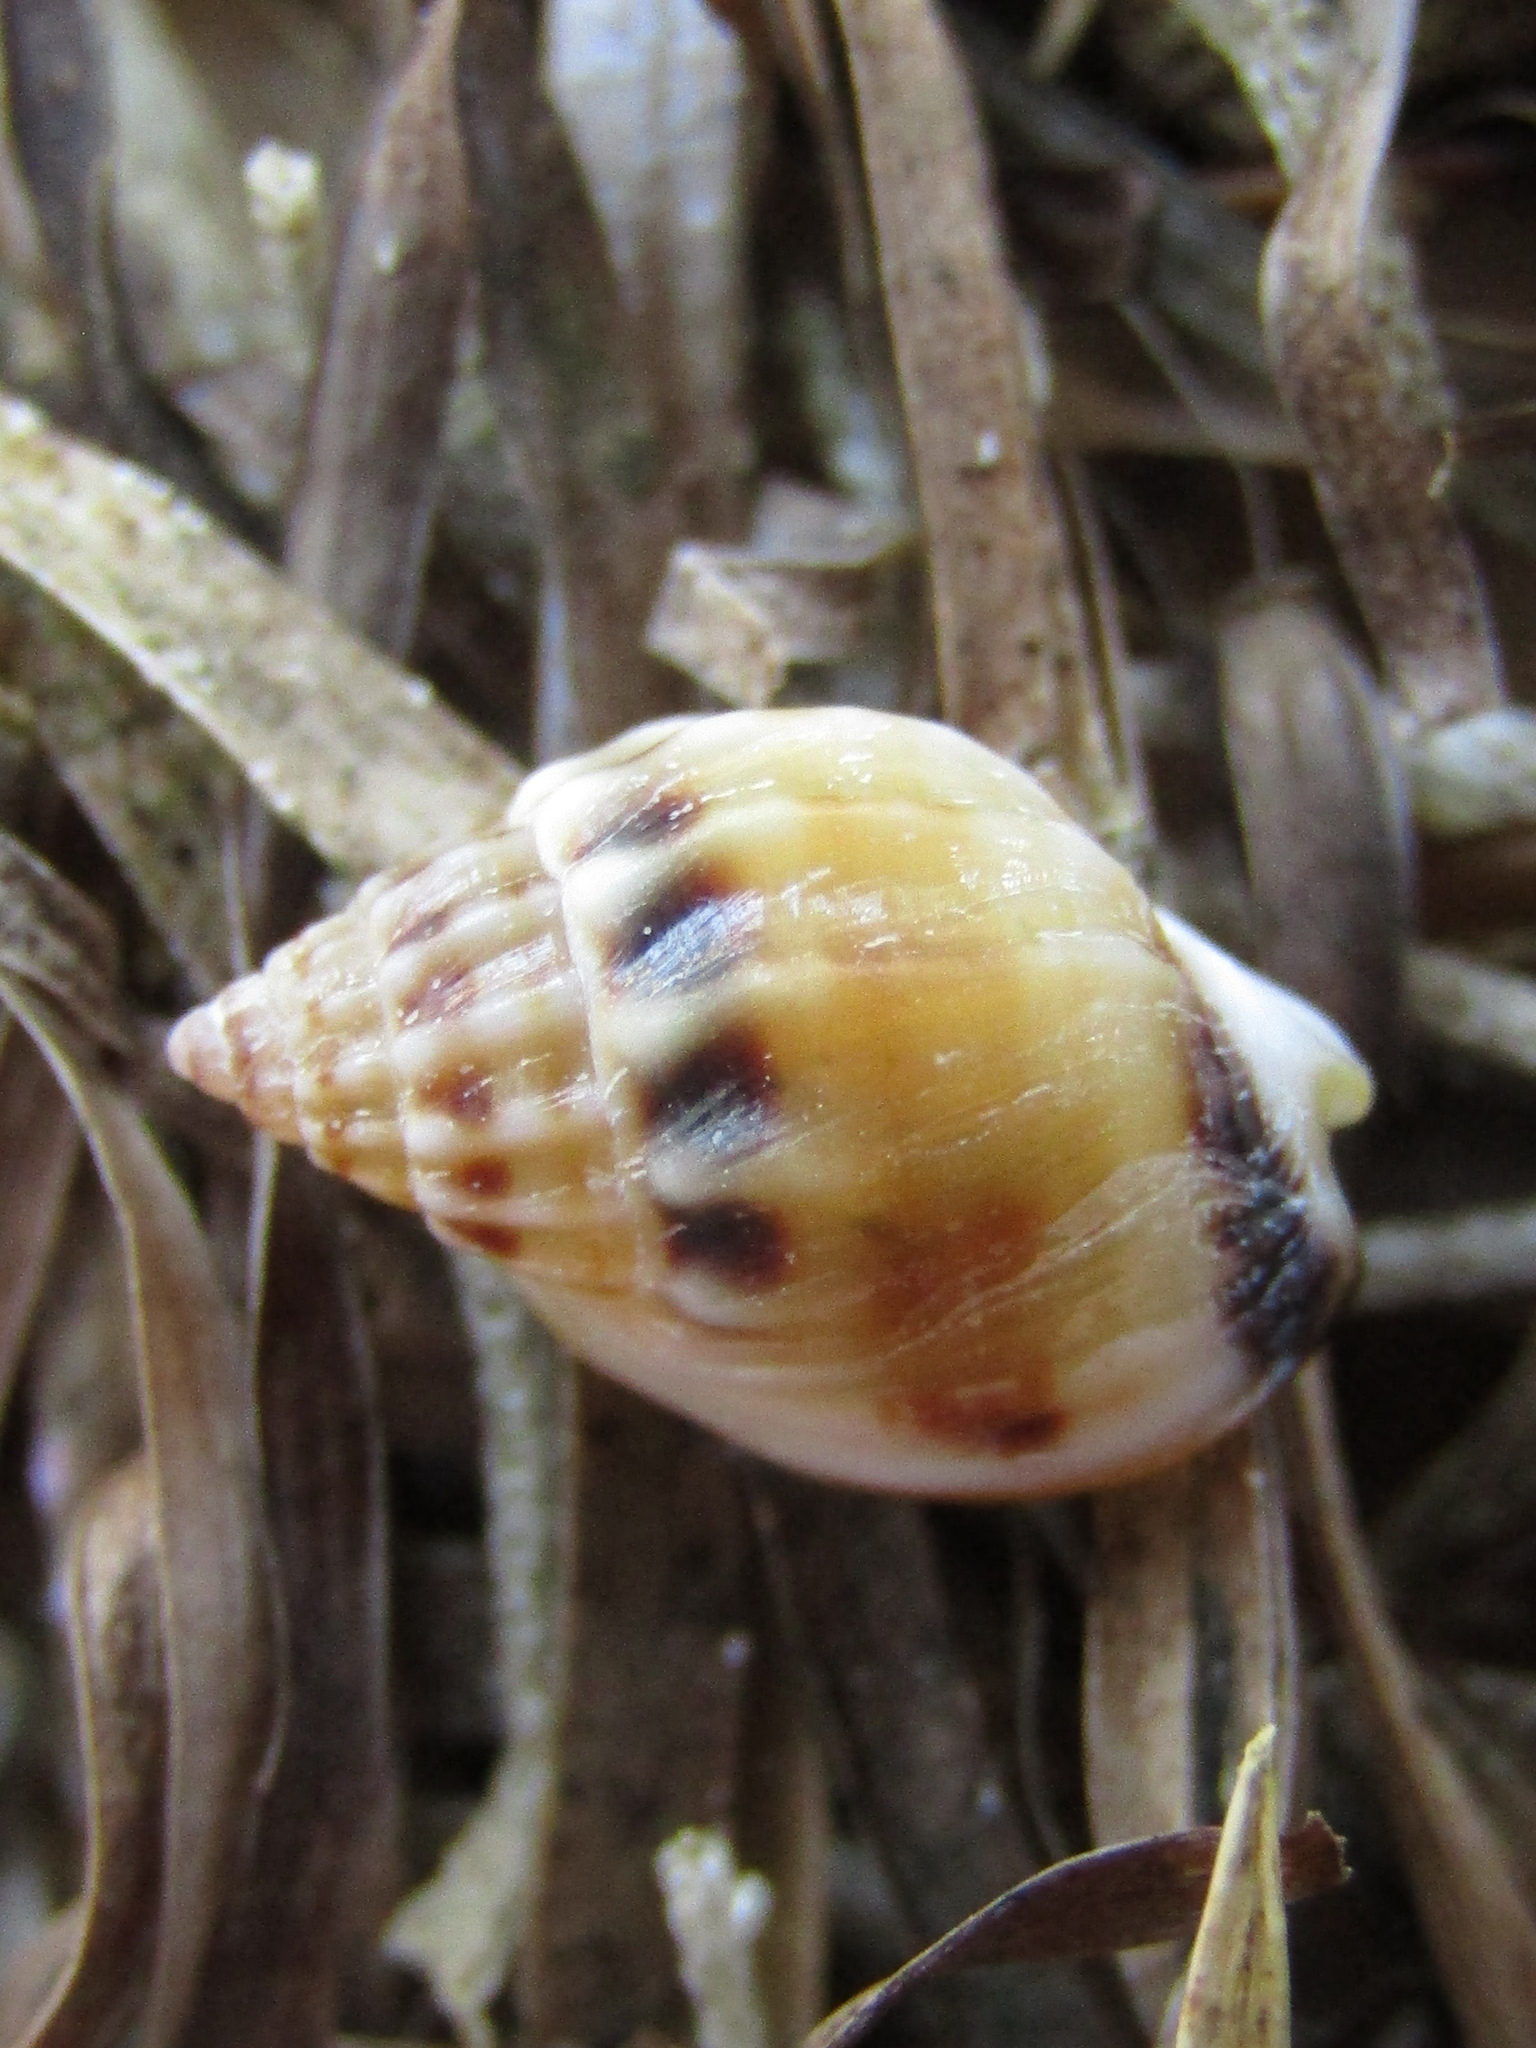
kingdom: Animalia
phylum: Mollusca
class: Gastropoda
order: Neogastropoda
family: Nassariidae
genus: Tritia
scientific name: Tritia burchardi
